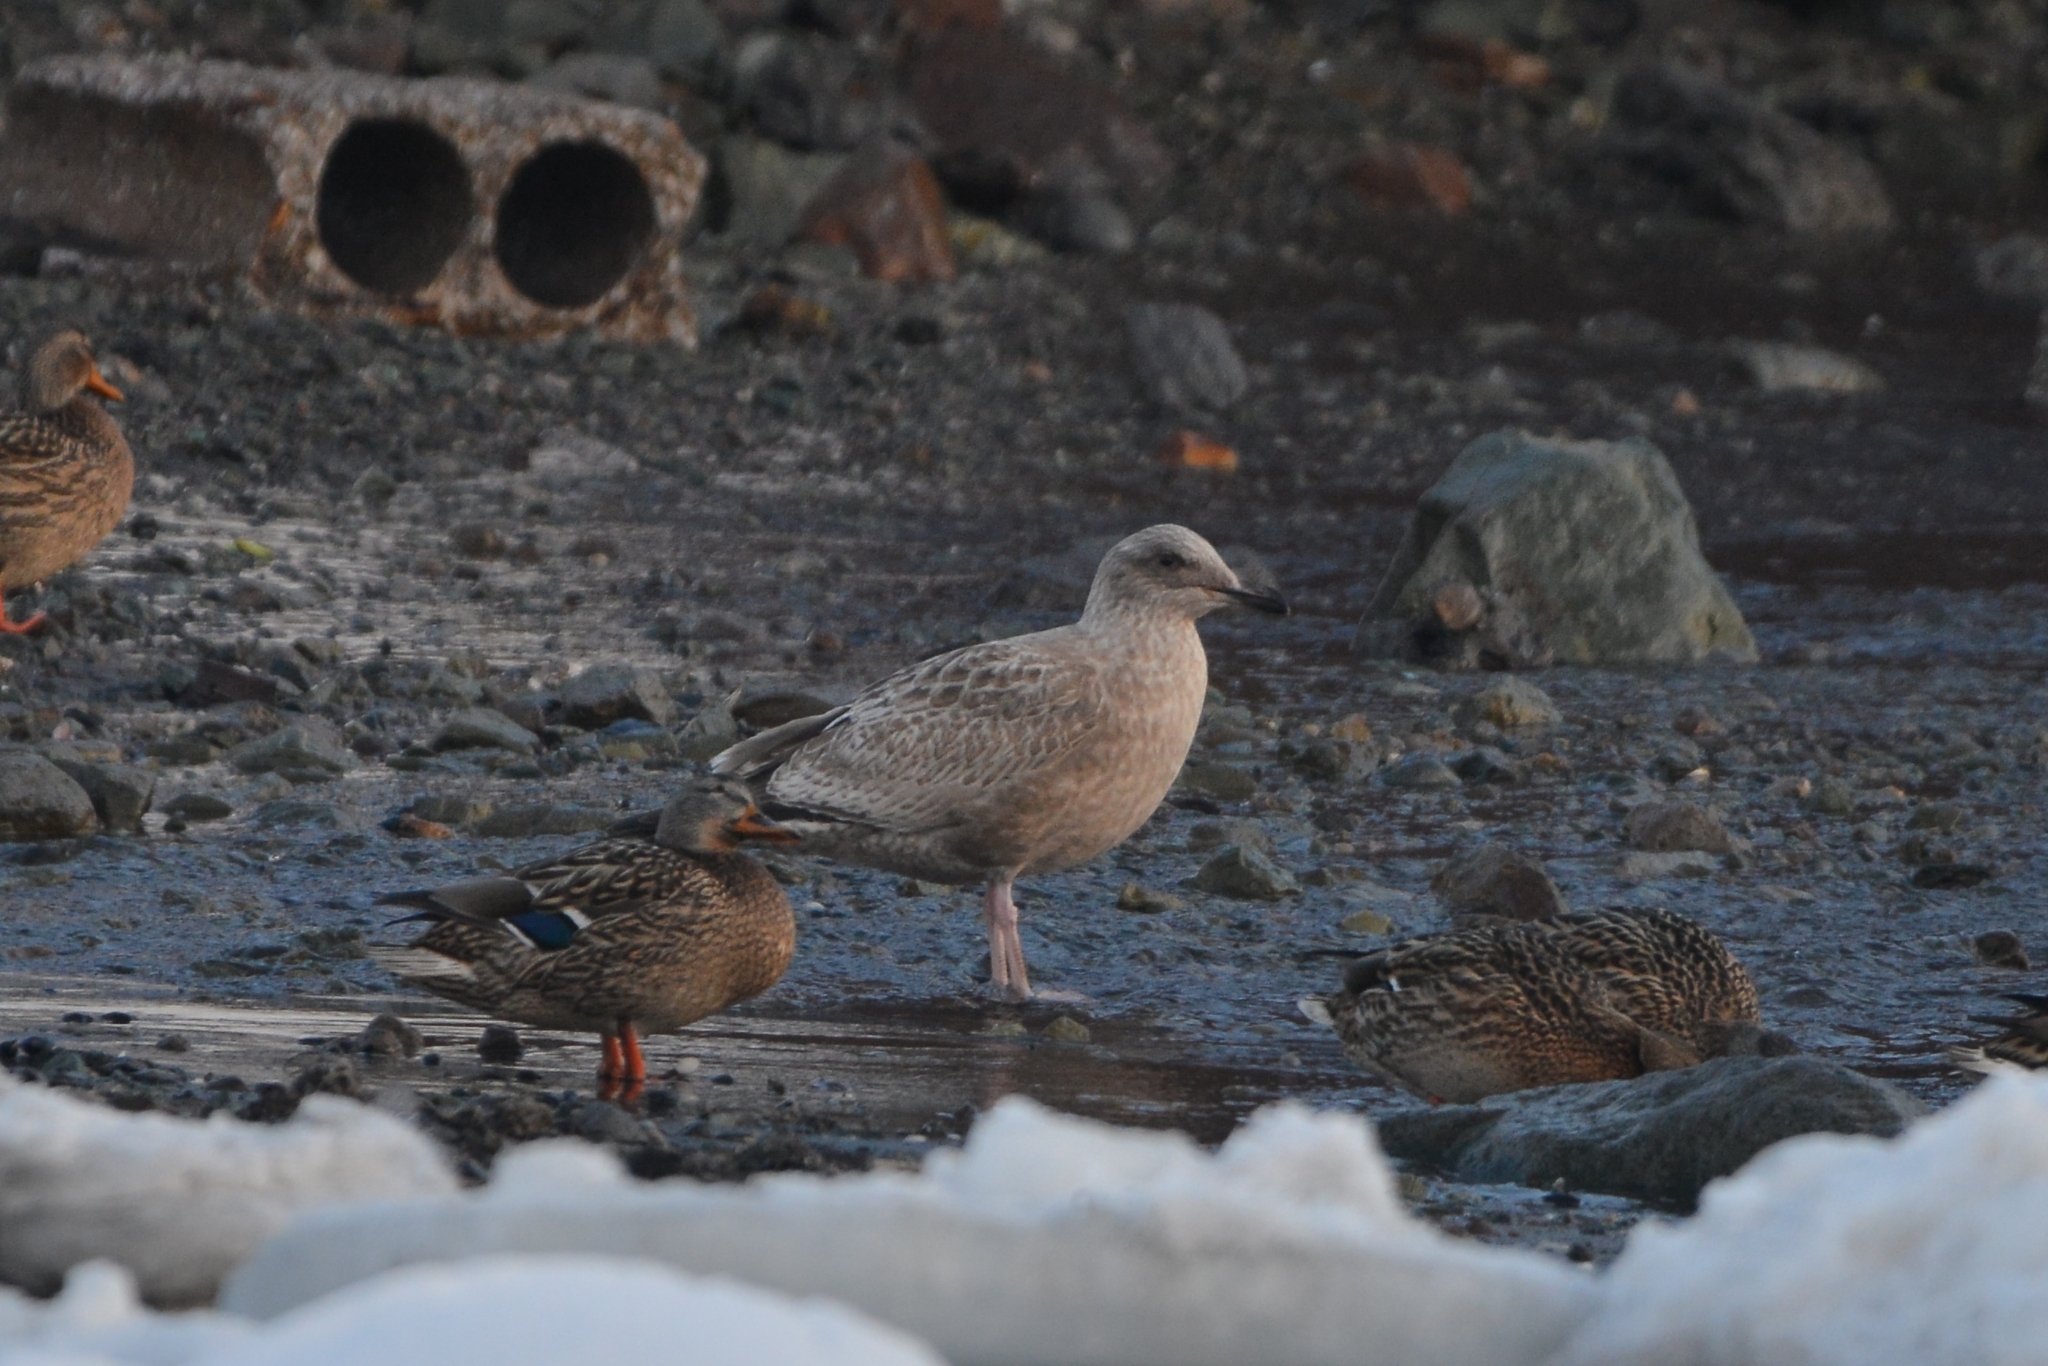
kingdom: Animalia
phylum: Chordata
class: Aves
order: Charadriiformes
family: Laridae
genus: Larus
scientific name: Larus schistisagus
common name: Slaty-backed gull
